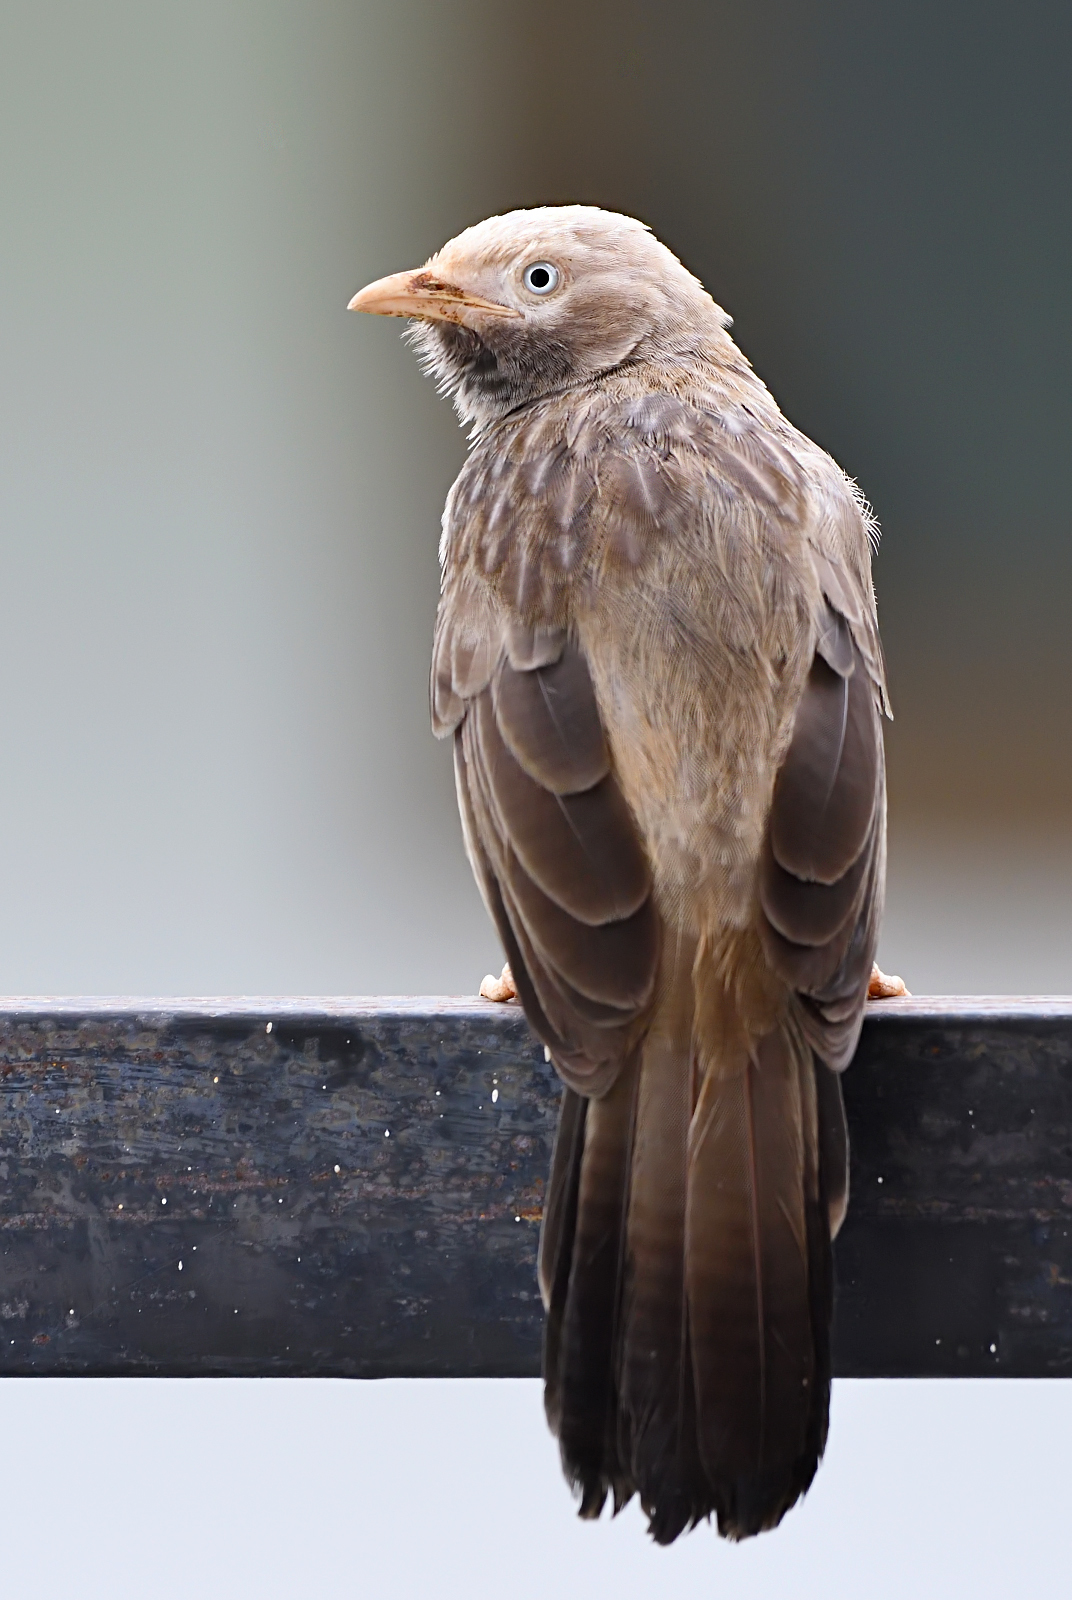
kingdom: Animalia
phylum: Chordata
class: Aves
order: Passeriformes
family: Leiothrichidae
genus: Turdoides
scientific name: Turdoides affinis
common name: Yellow-billed babbler
